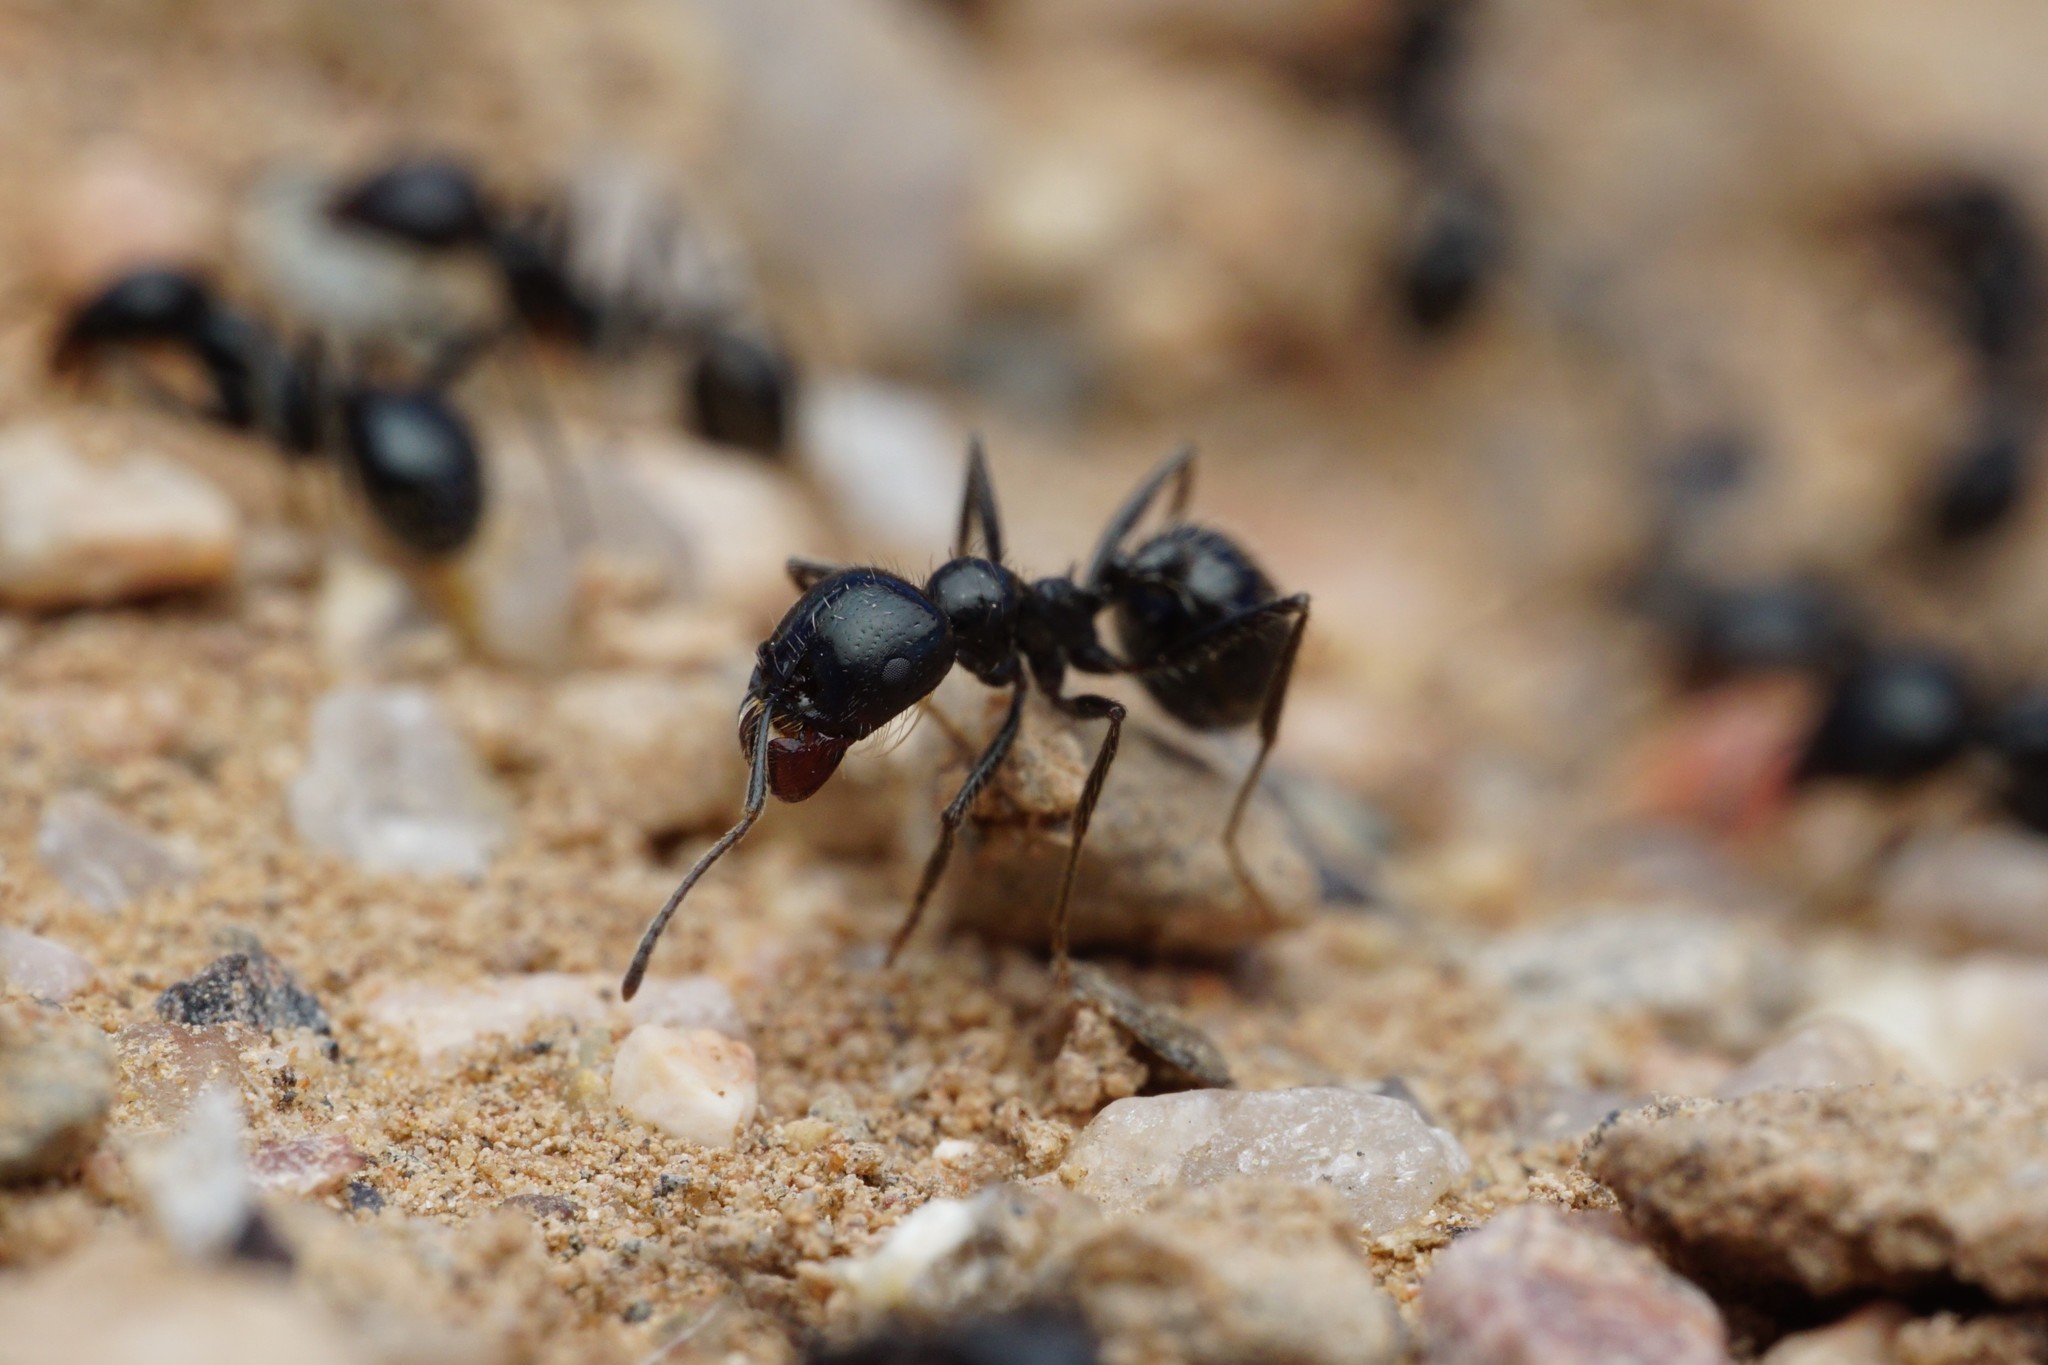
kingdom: Animalia
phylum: Arthropoda
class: Insecta
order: Hymenoptera
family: Formicidae
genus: Messor
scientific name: Messor pergandei
